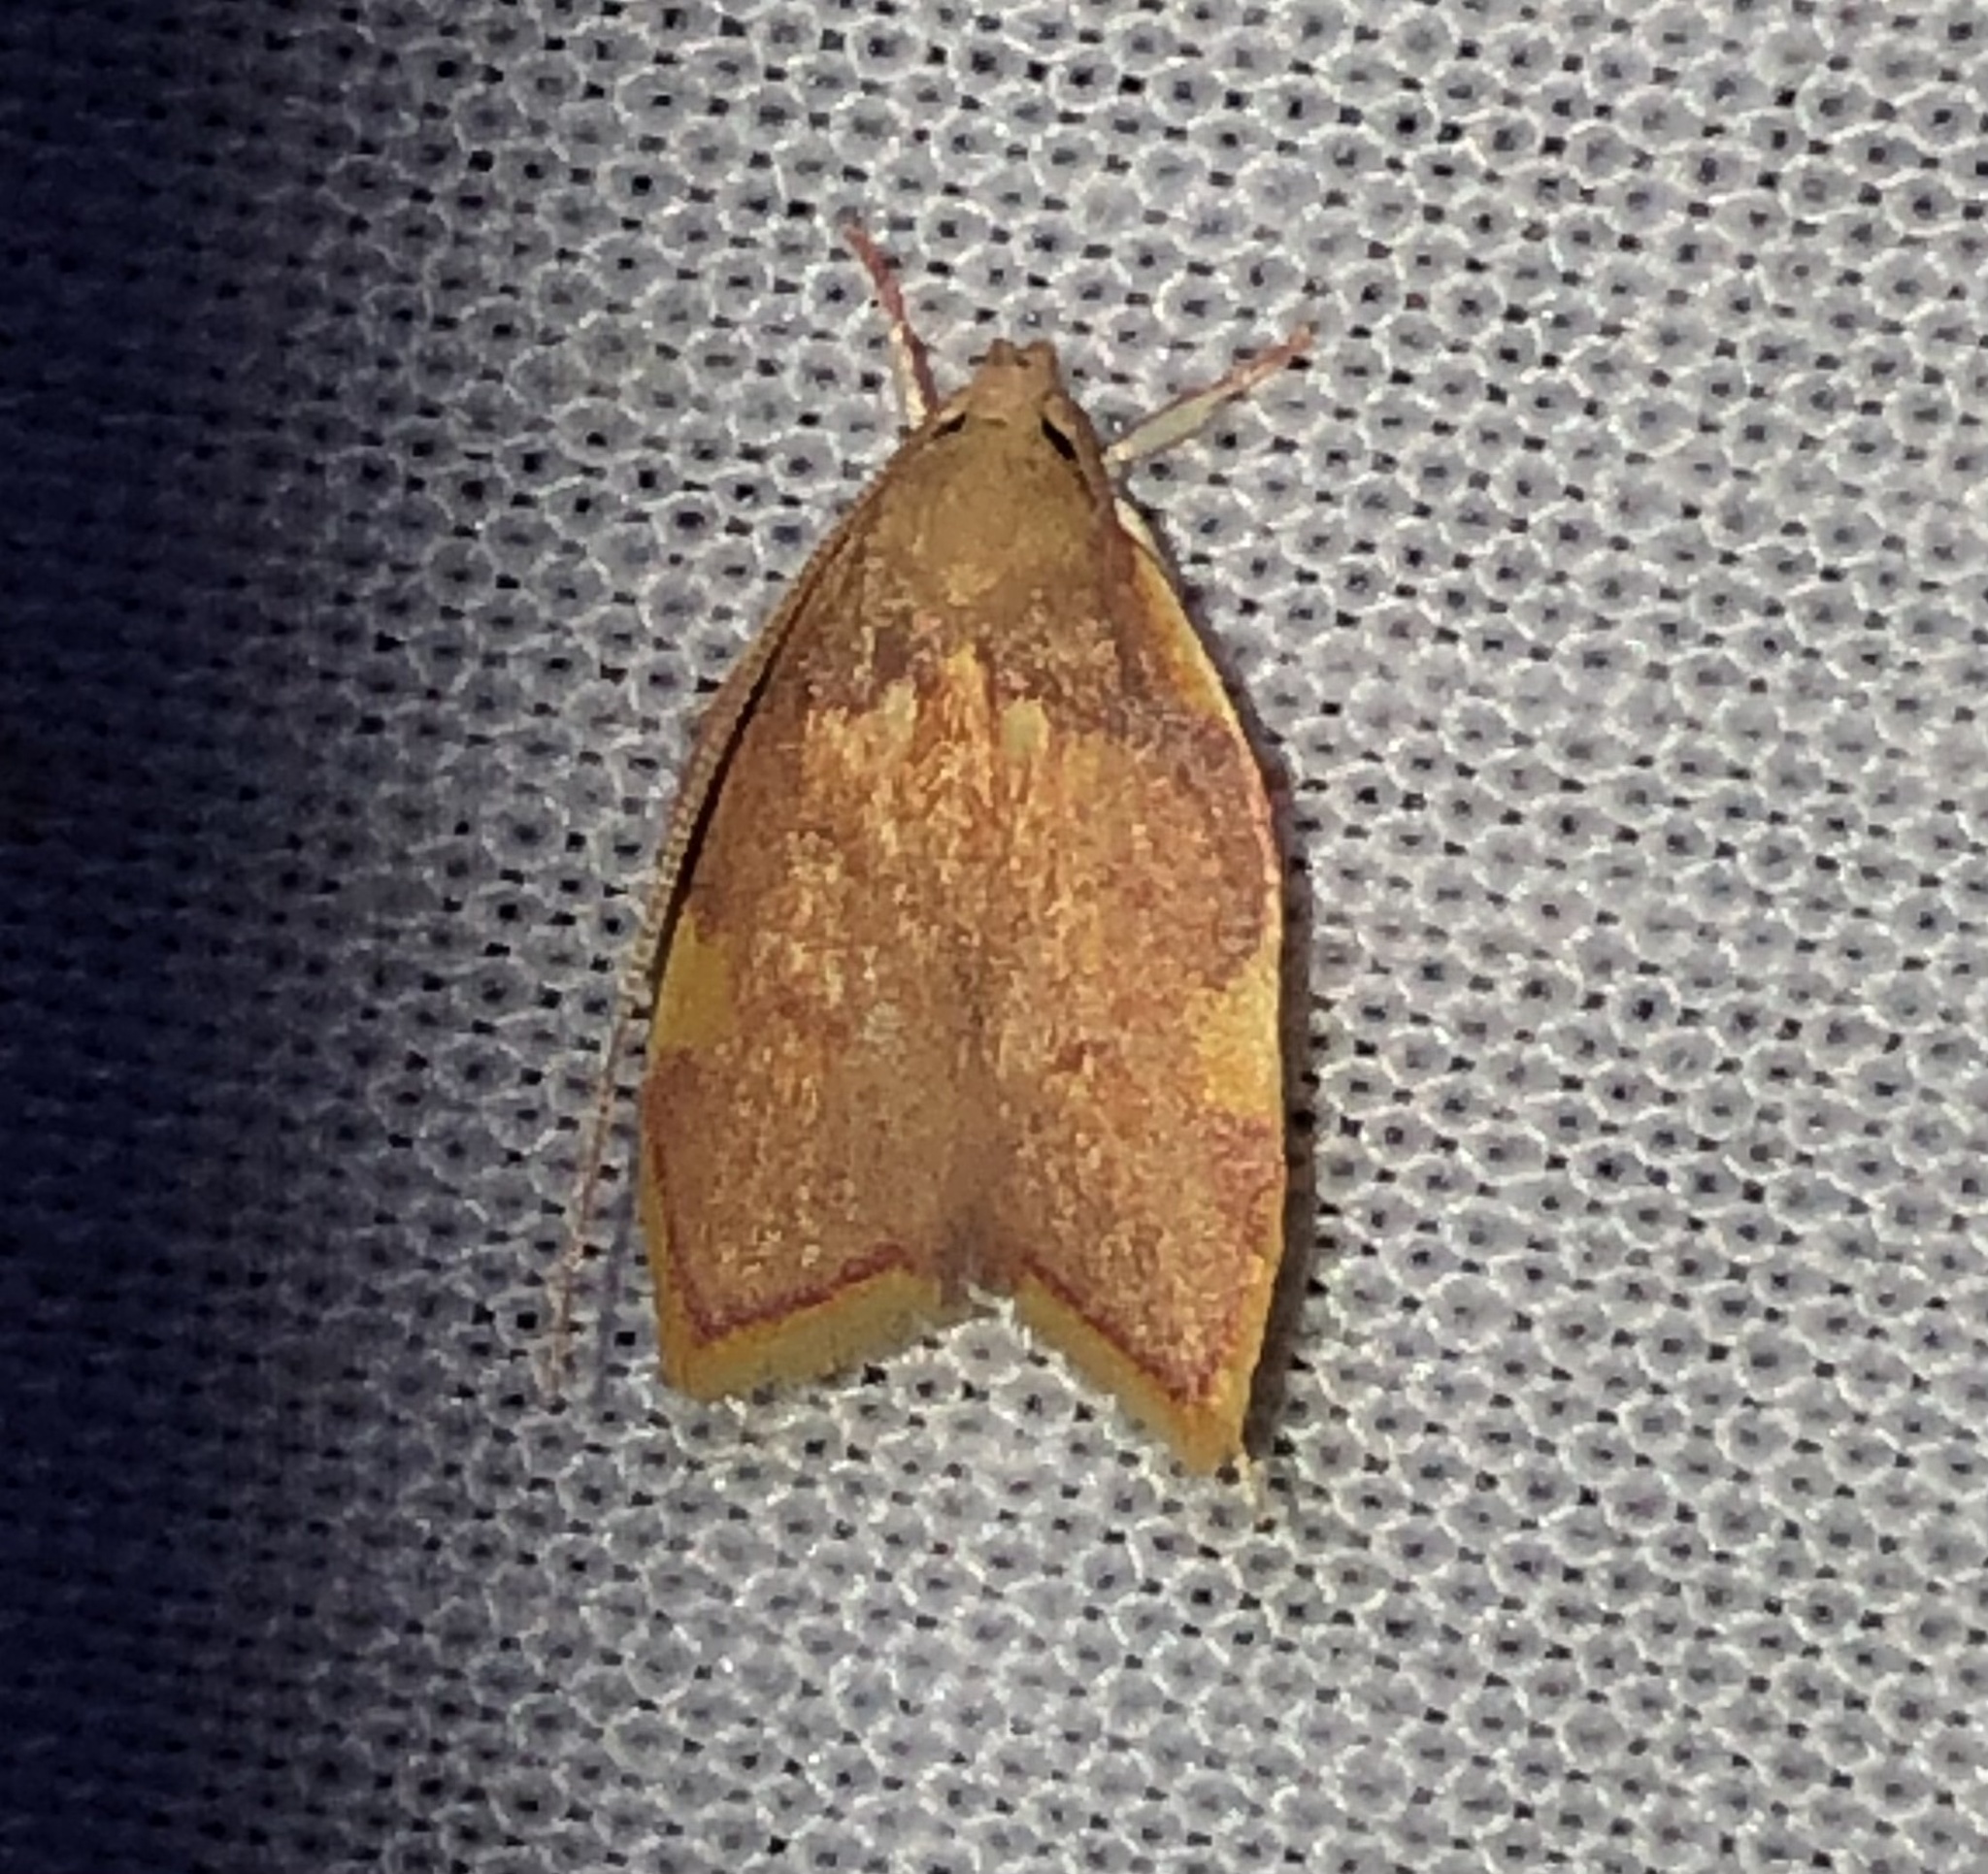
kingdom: Animalia
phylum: Arthropoda
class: Insecta
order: Lepidoptera
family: Peleopodidae
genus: Carcina
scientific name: Carcina quercana
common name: Moth
